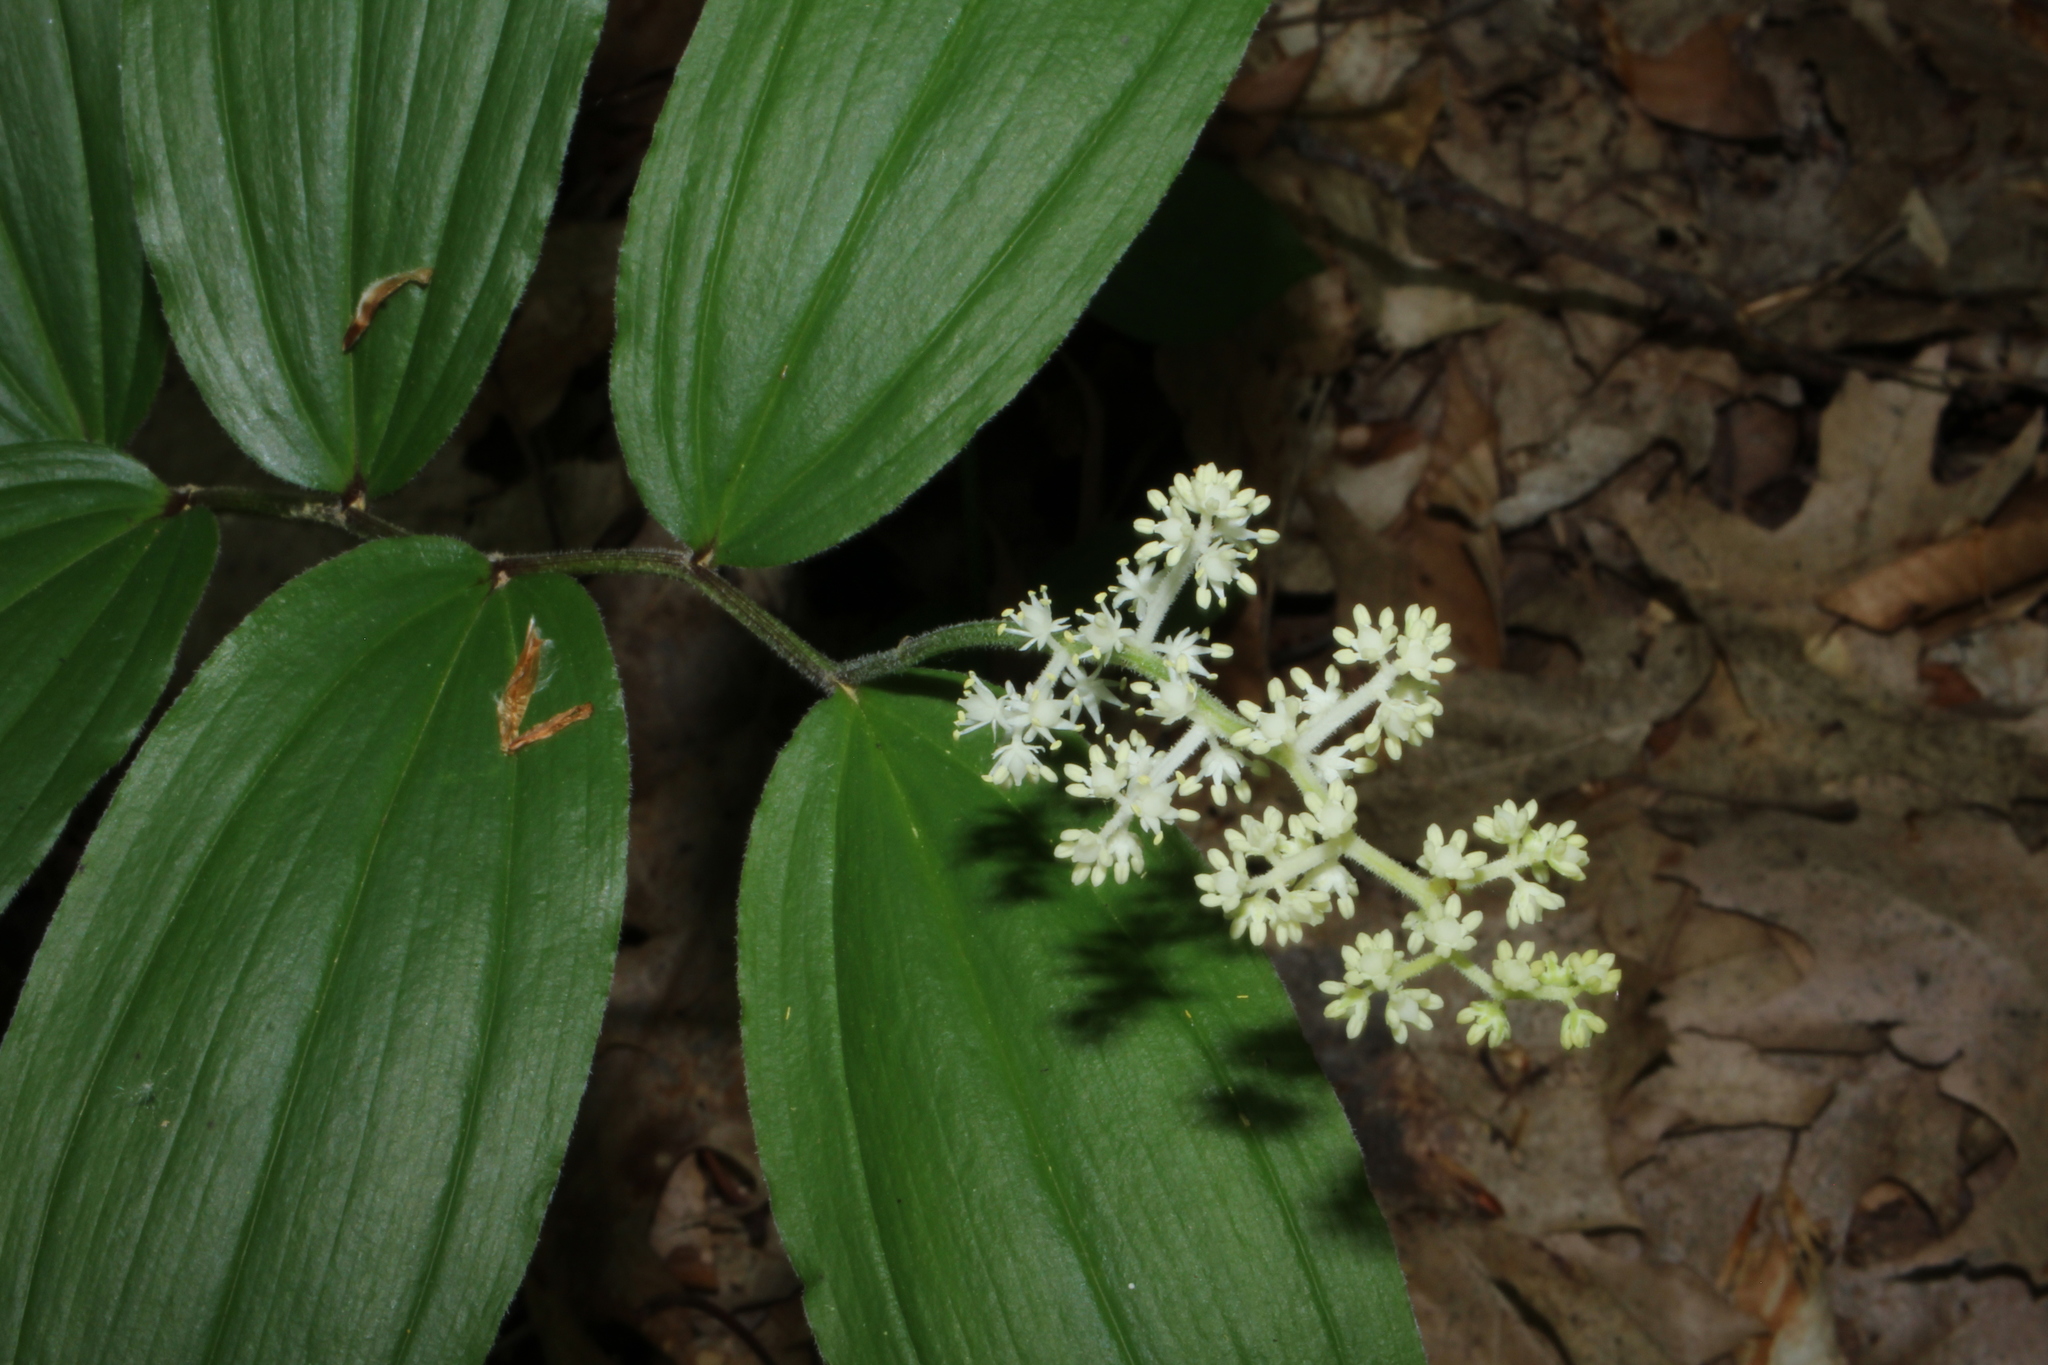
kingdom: Plantae
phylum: Tracheophyta
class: Liliopsida
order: Asparagales
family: Asparagaceae
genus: Maianthemum
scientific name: Maianthemum racemosum
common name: False spikenard
